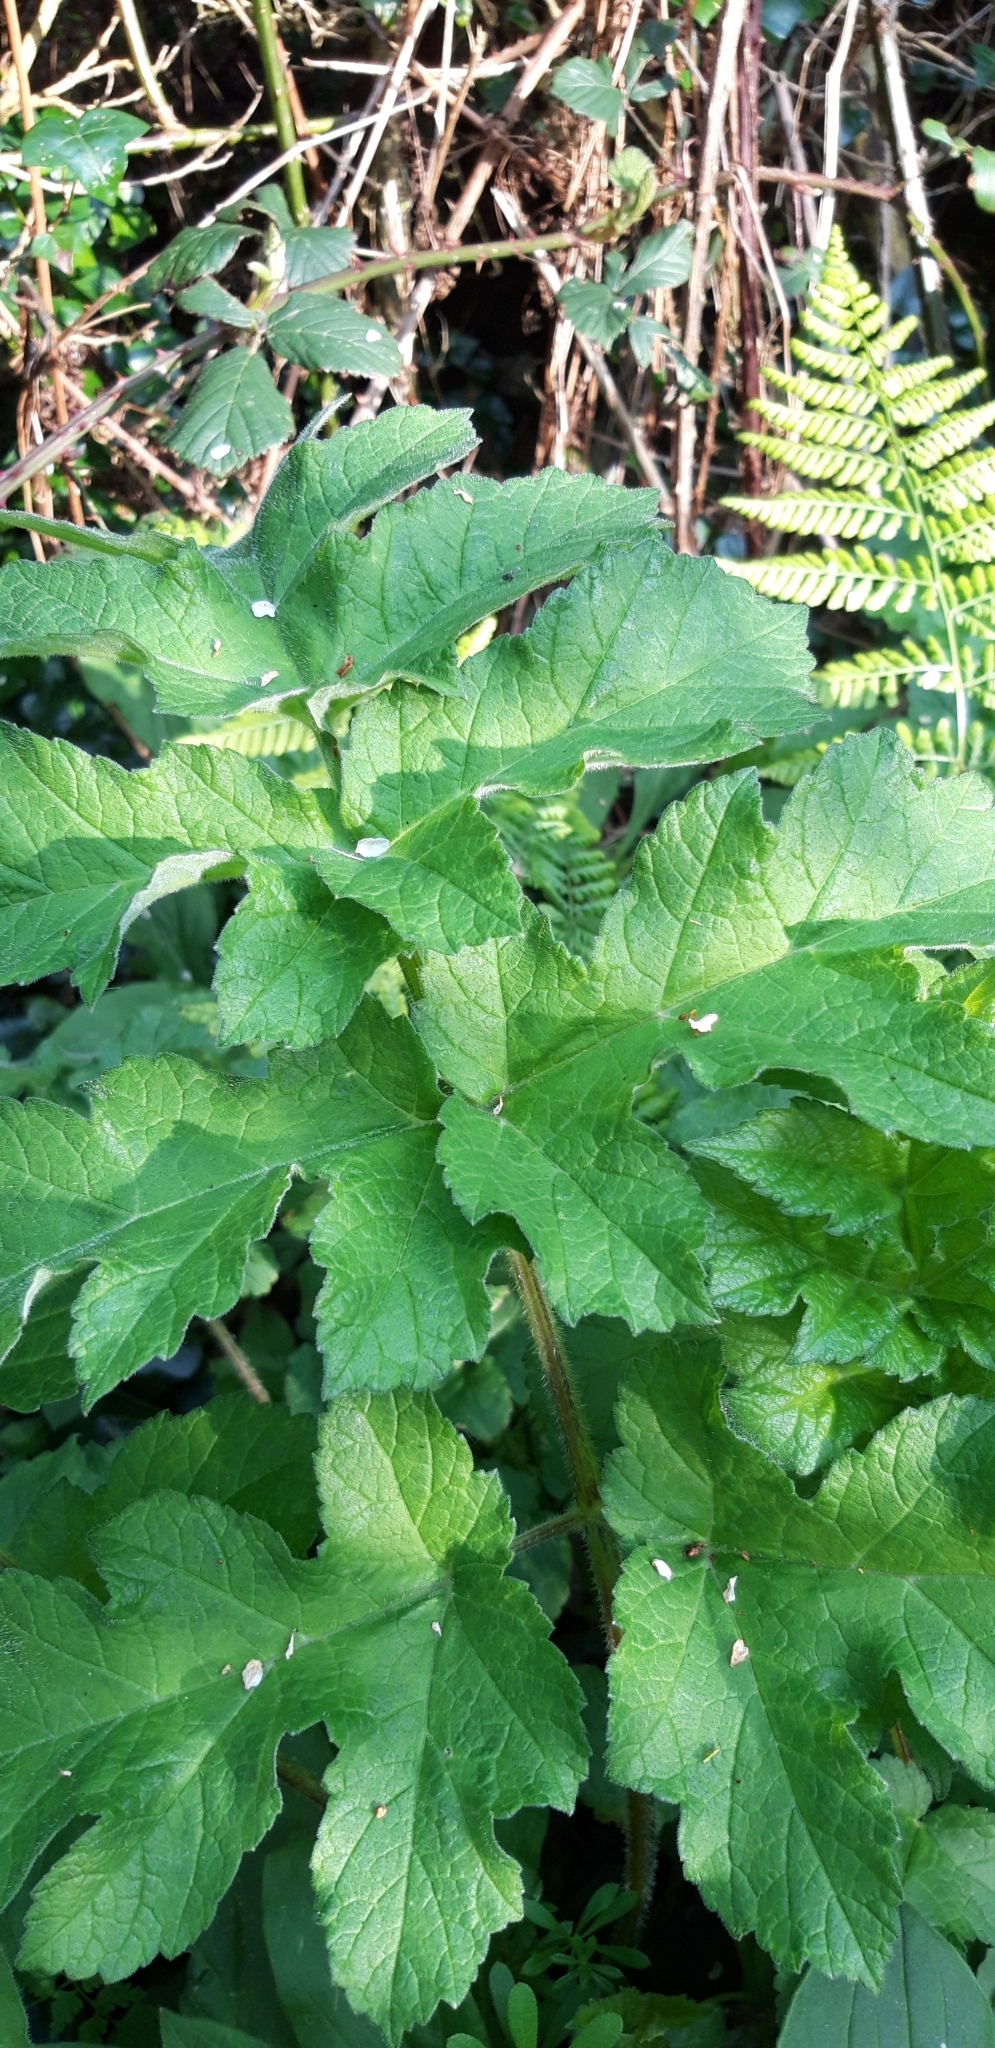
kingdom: Plantae
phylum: Tracheophyta
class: Magnoliopsida
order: Apiales
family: Apiaceae
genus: Heracleum
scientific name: Heracleum sphondylium
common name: Hogweed
